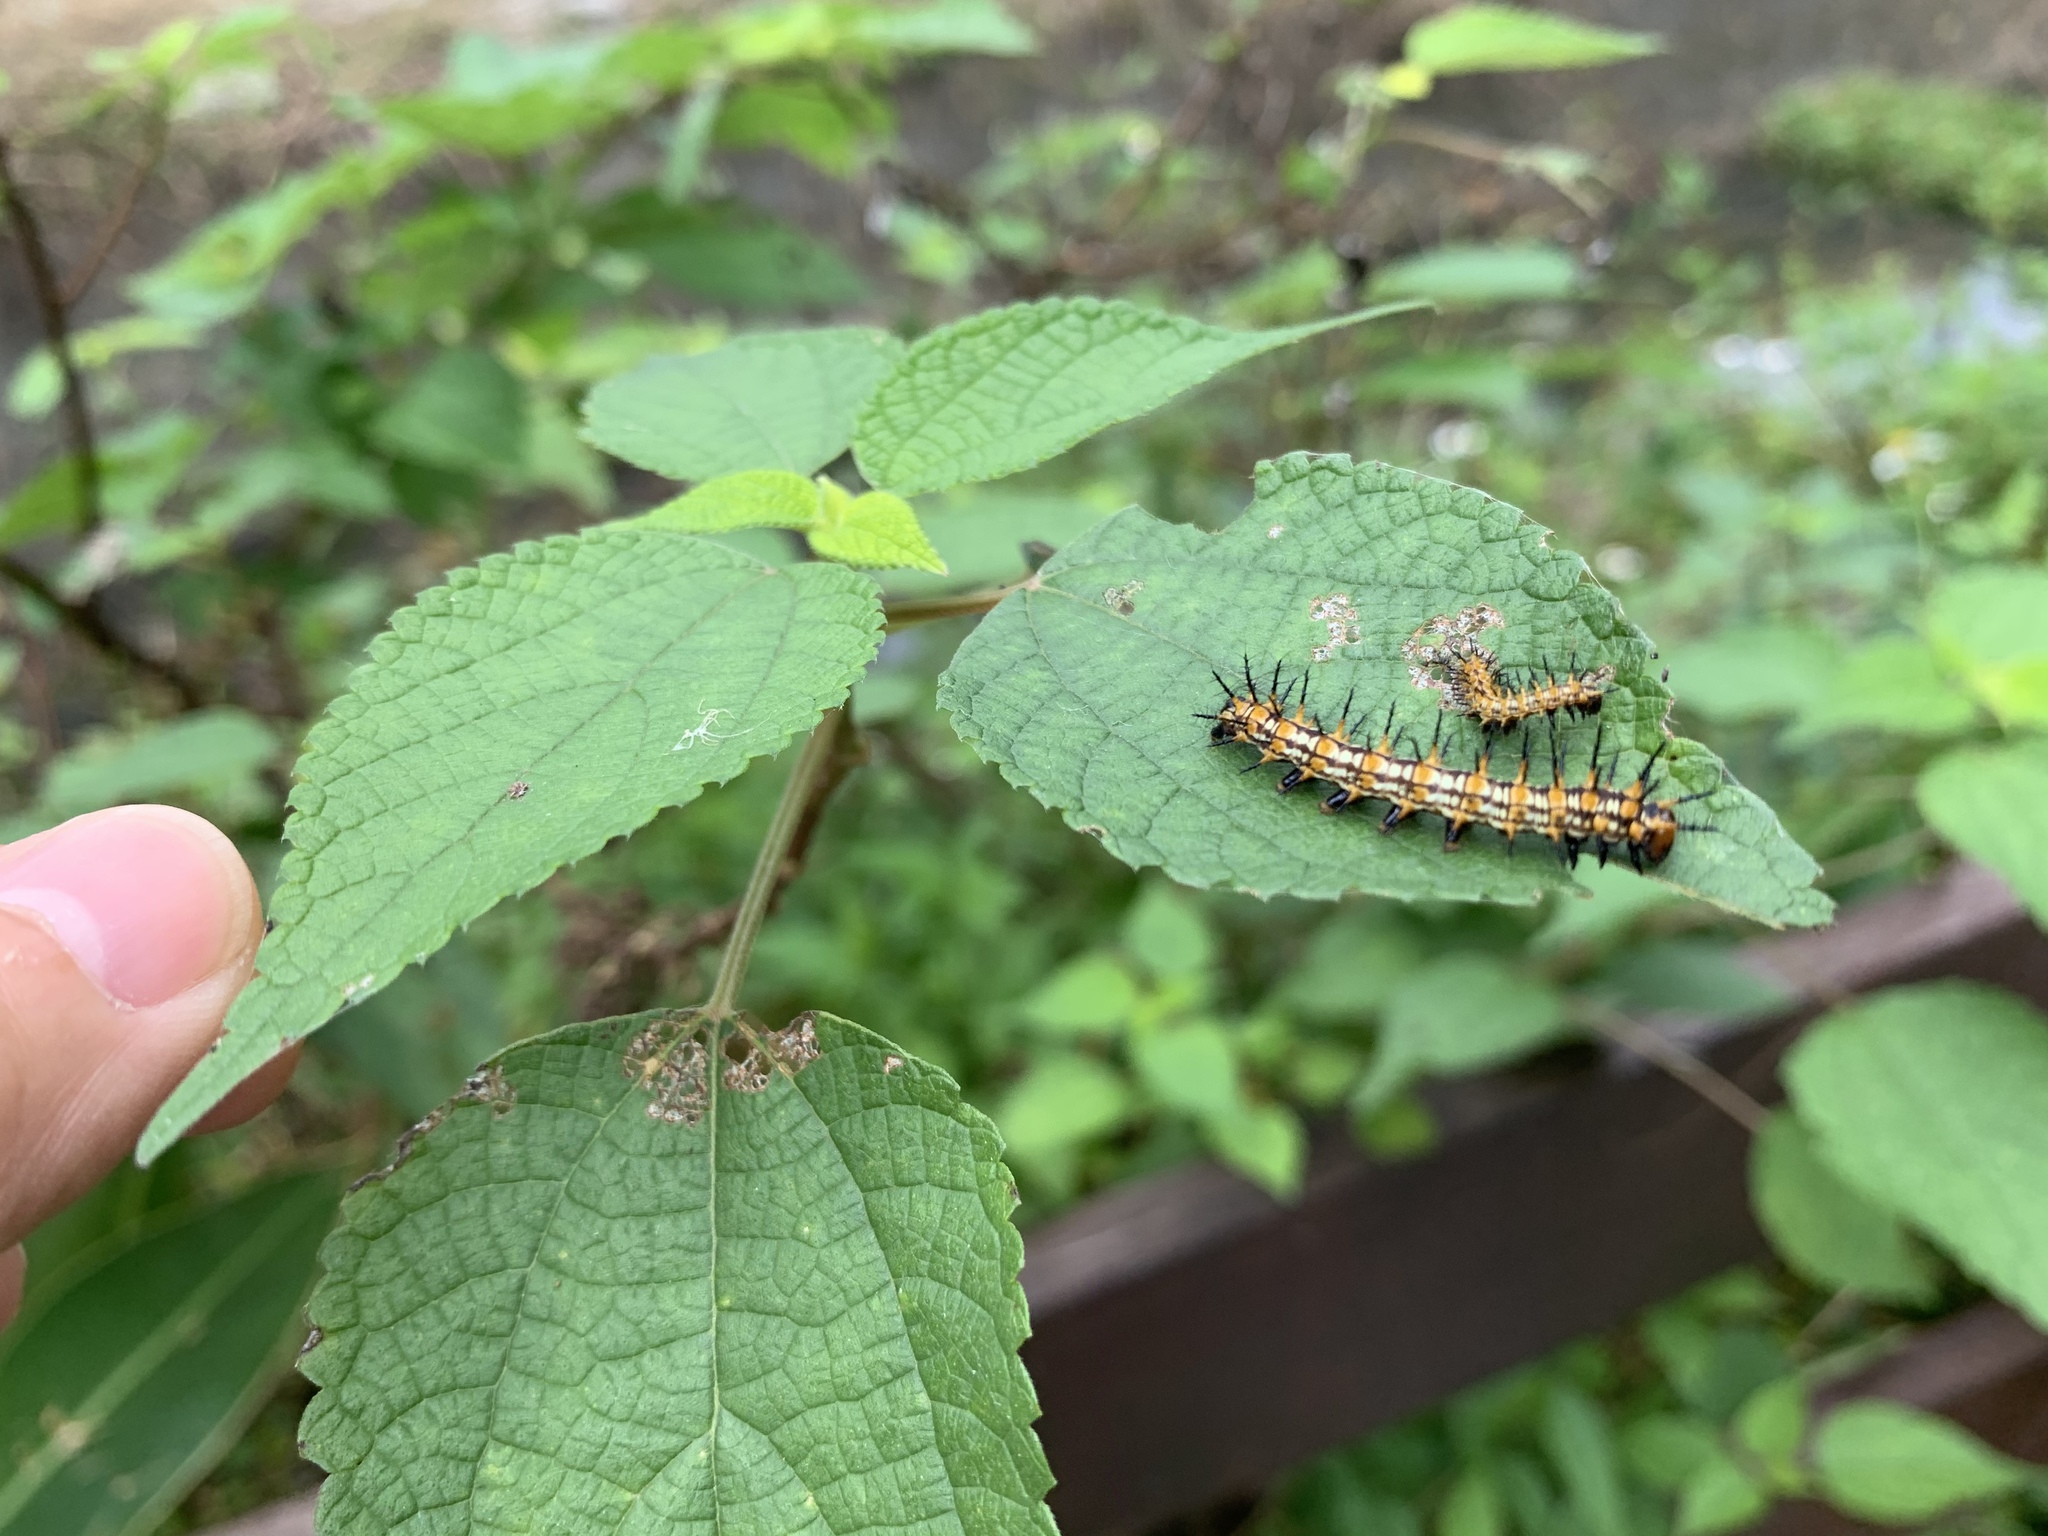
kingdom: Animalia
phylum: Arthropoda
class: Insecta
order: Lepidoptera
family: Nymphalidae
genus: Acraea
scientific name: Acraea Telchinia issoria
